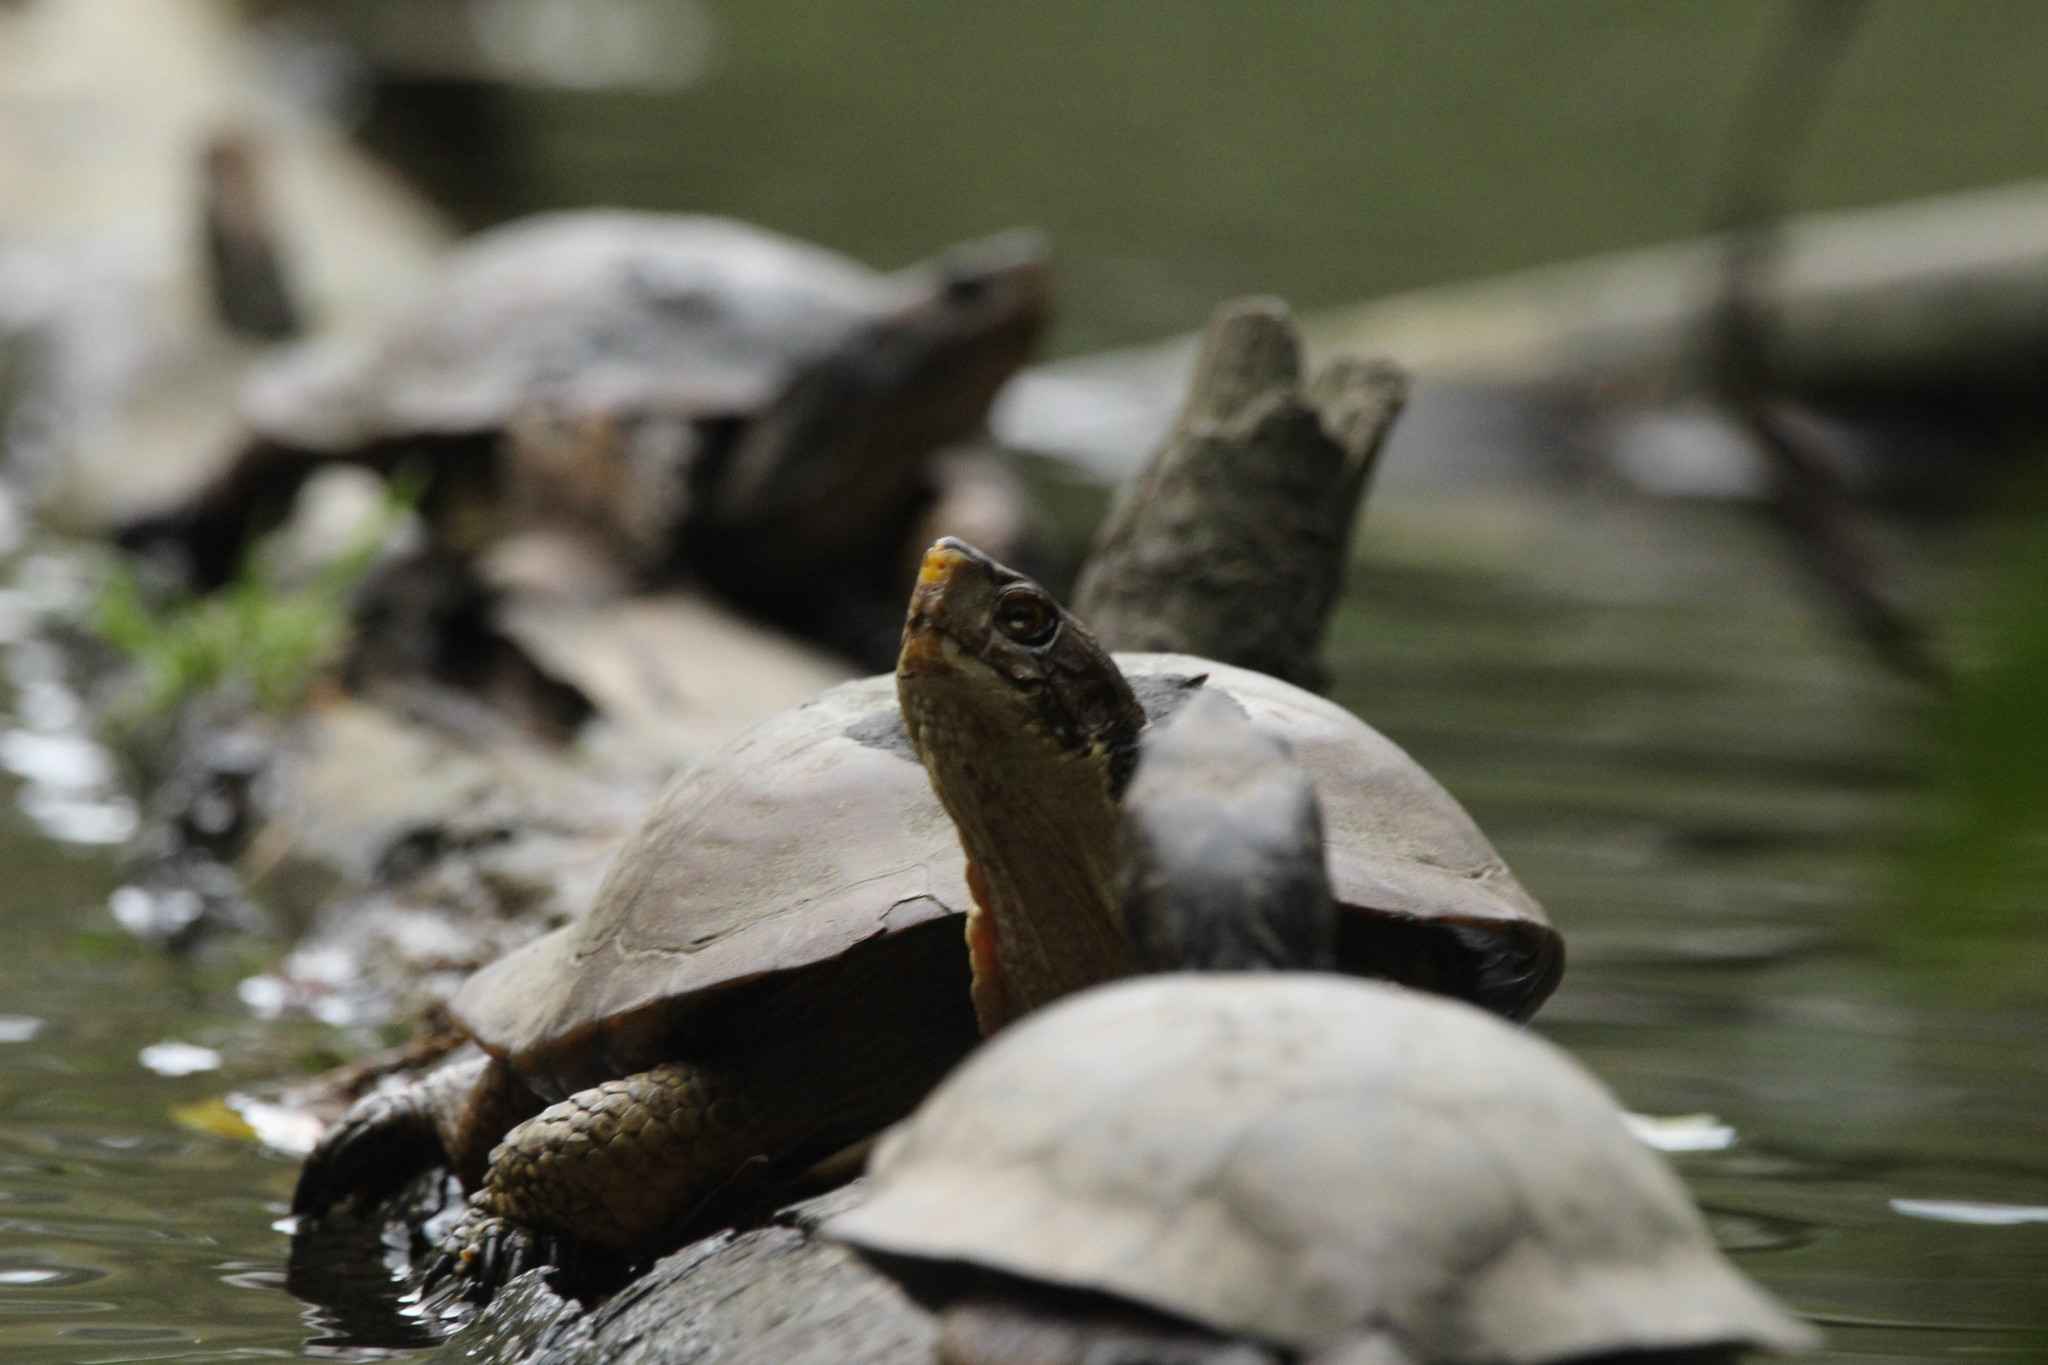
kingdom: Animalia
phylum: Chordata
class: Testudines
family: Emydidae
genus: Actinemys
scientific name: Actinemys marmorata
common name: Western pond turtle
